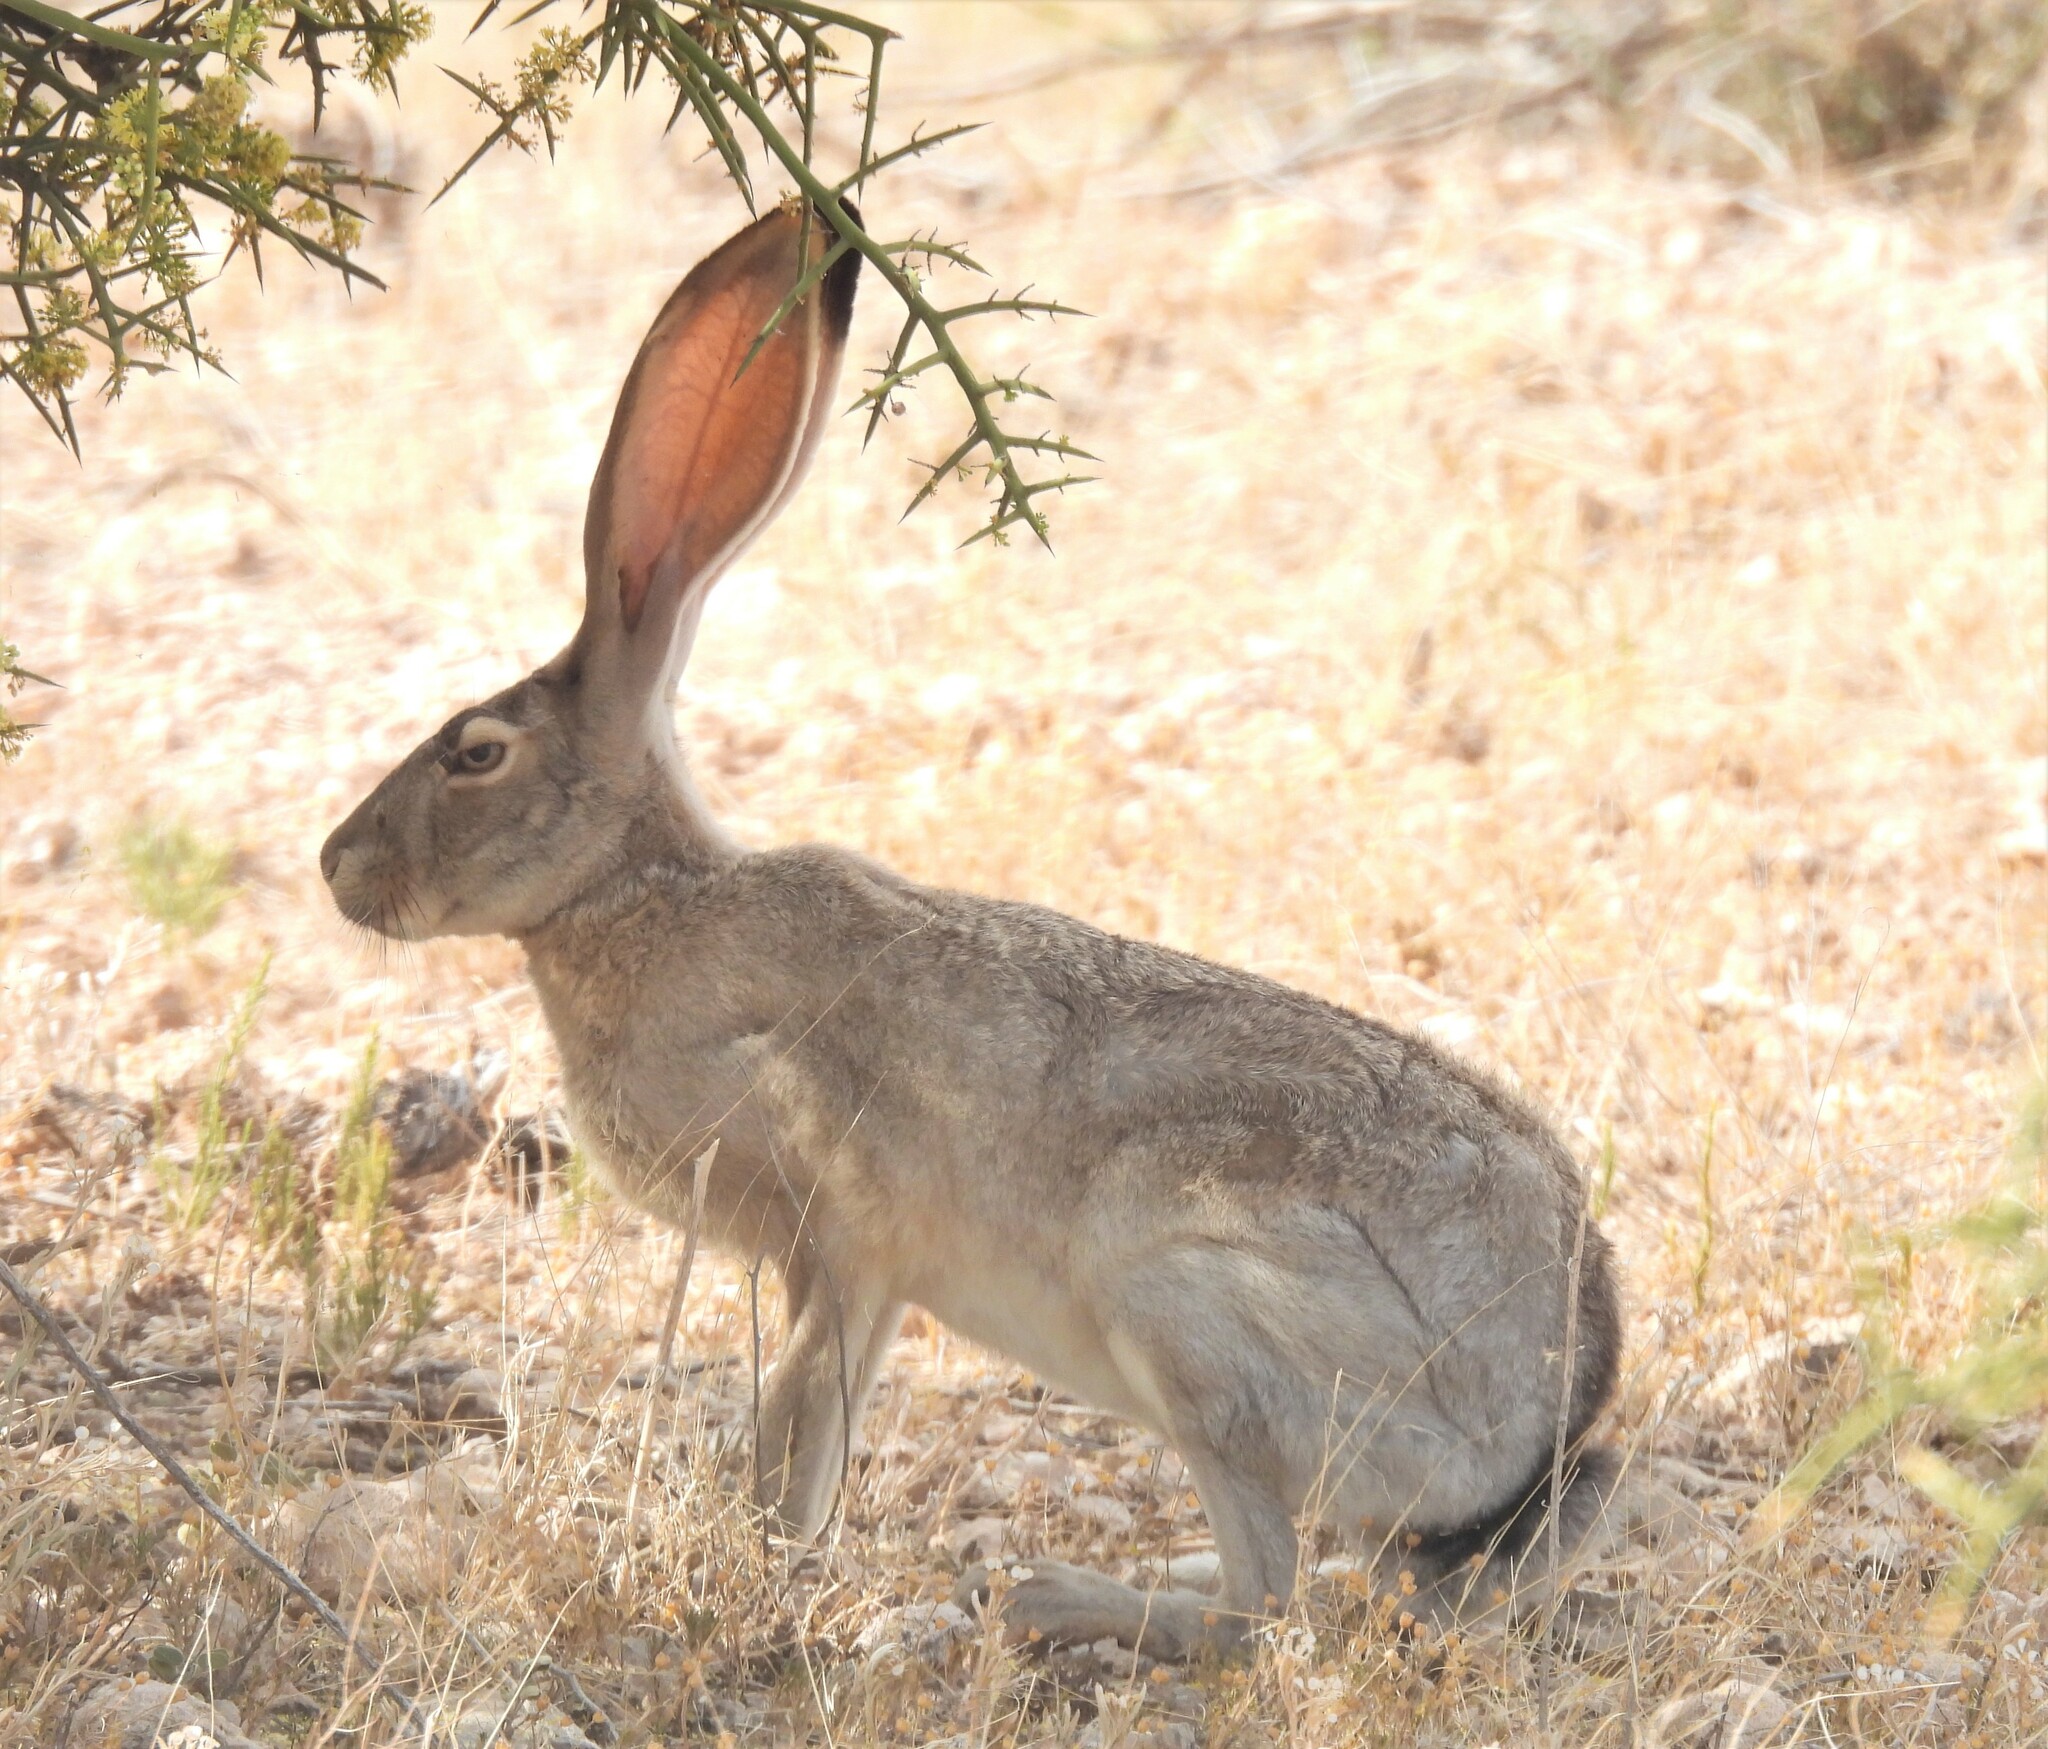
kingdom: Animalia
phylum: Chordata
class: Mammalia
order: Lagomorpha
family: Leporidae
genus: Lepus
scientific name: Lepus californicus
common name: Black-tailed jackrabbit
